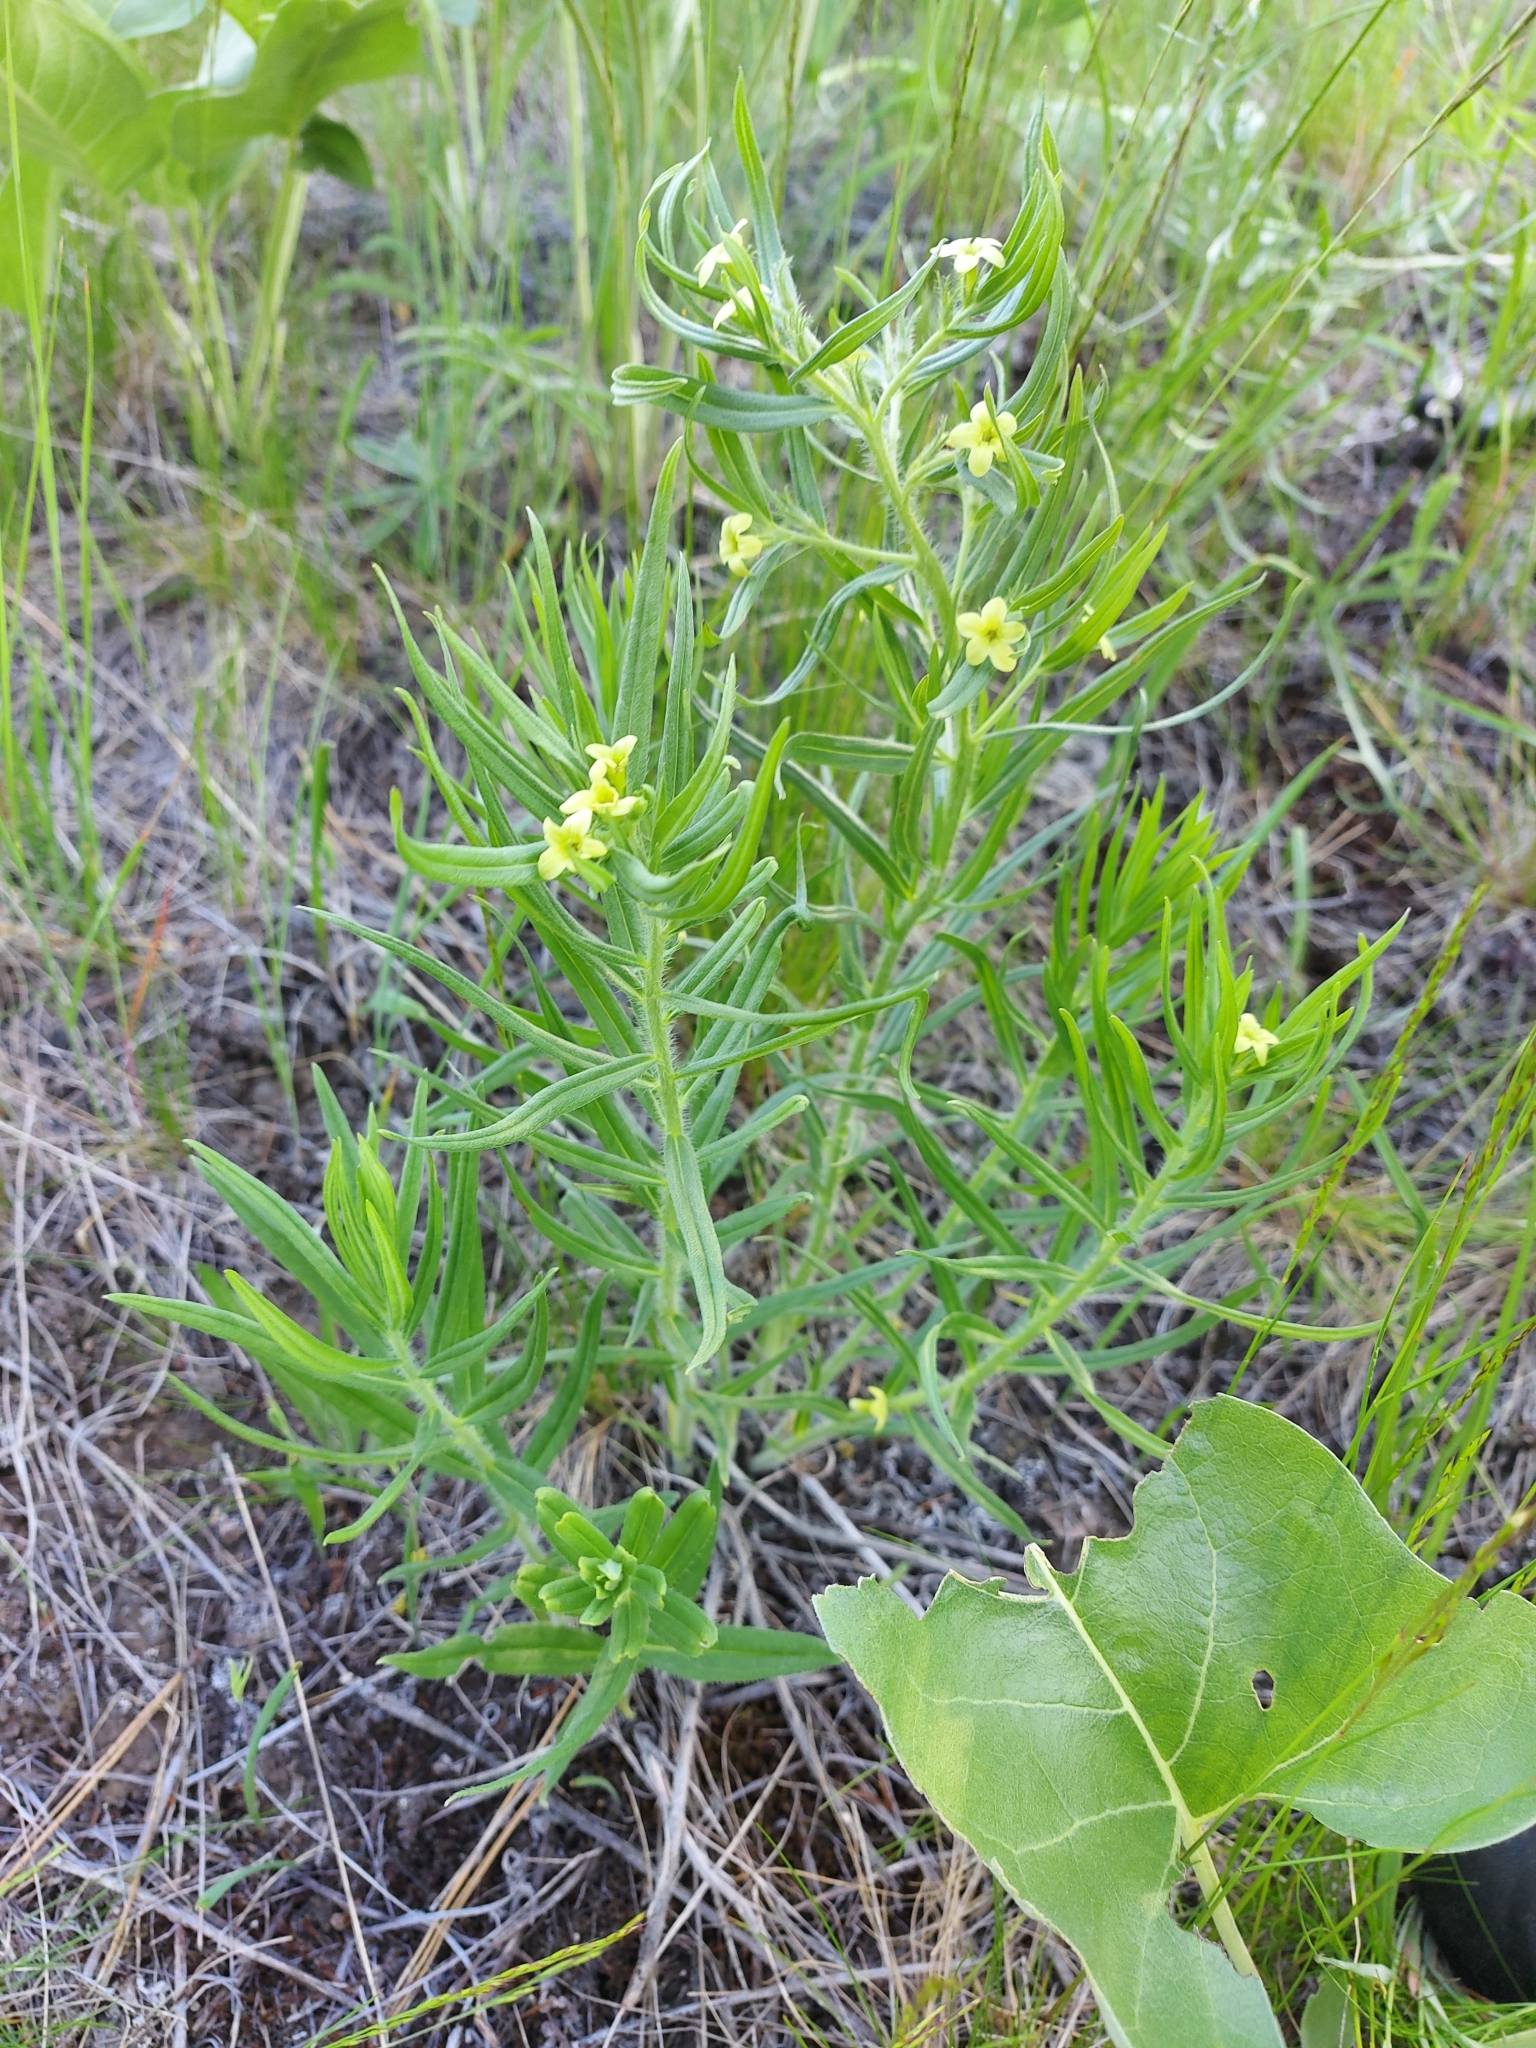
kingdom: Plantae
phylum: Tracheophyta
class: Magnoliopsida
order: Boraginales
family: Boraginaceae
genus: Lithospermum
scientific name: Lithospermum ruderale
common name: Western gromwell
